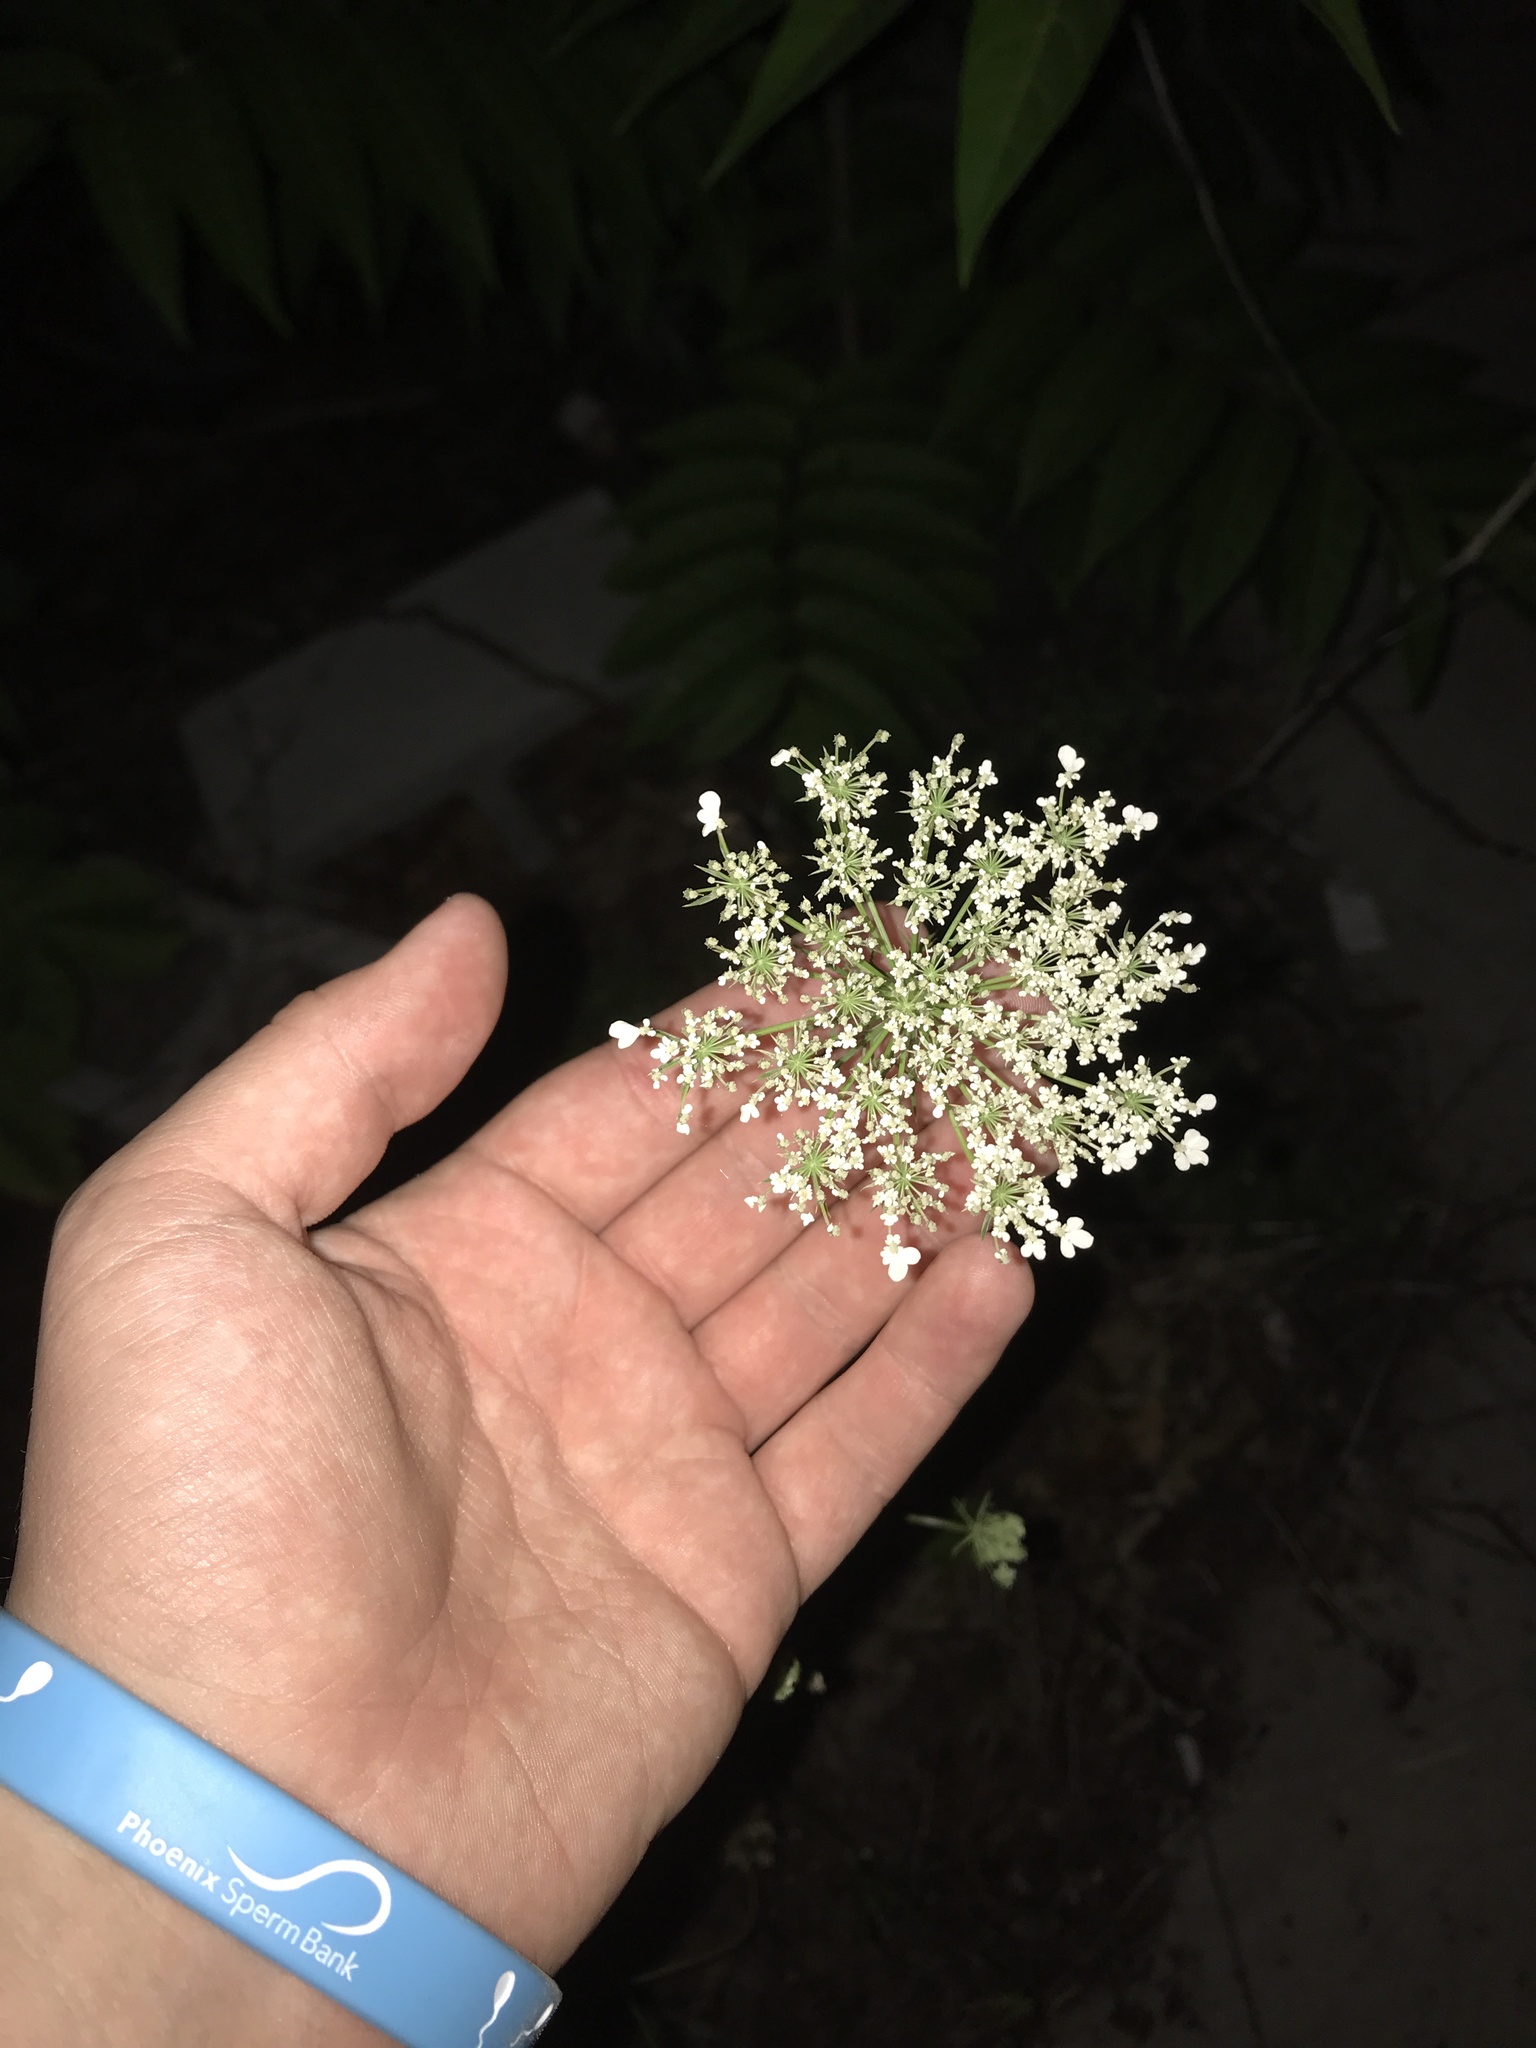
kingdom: Plantae
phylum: Tracheophyta
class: Magnoliopsida
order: Apiales
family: Apiaceae
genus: Cicuta
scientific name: Cicuta maculata
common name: Spotted cowbane
